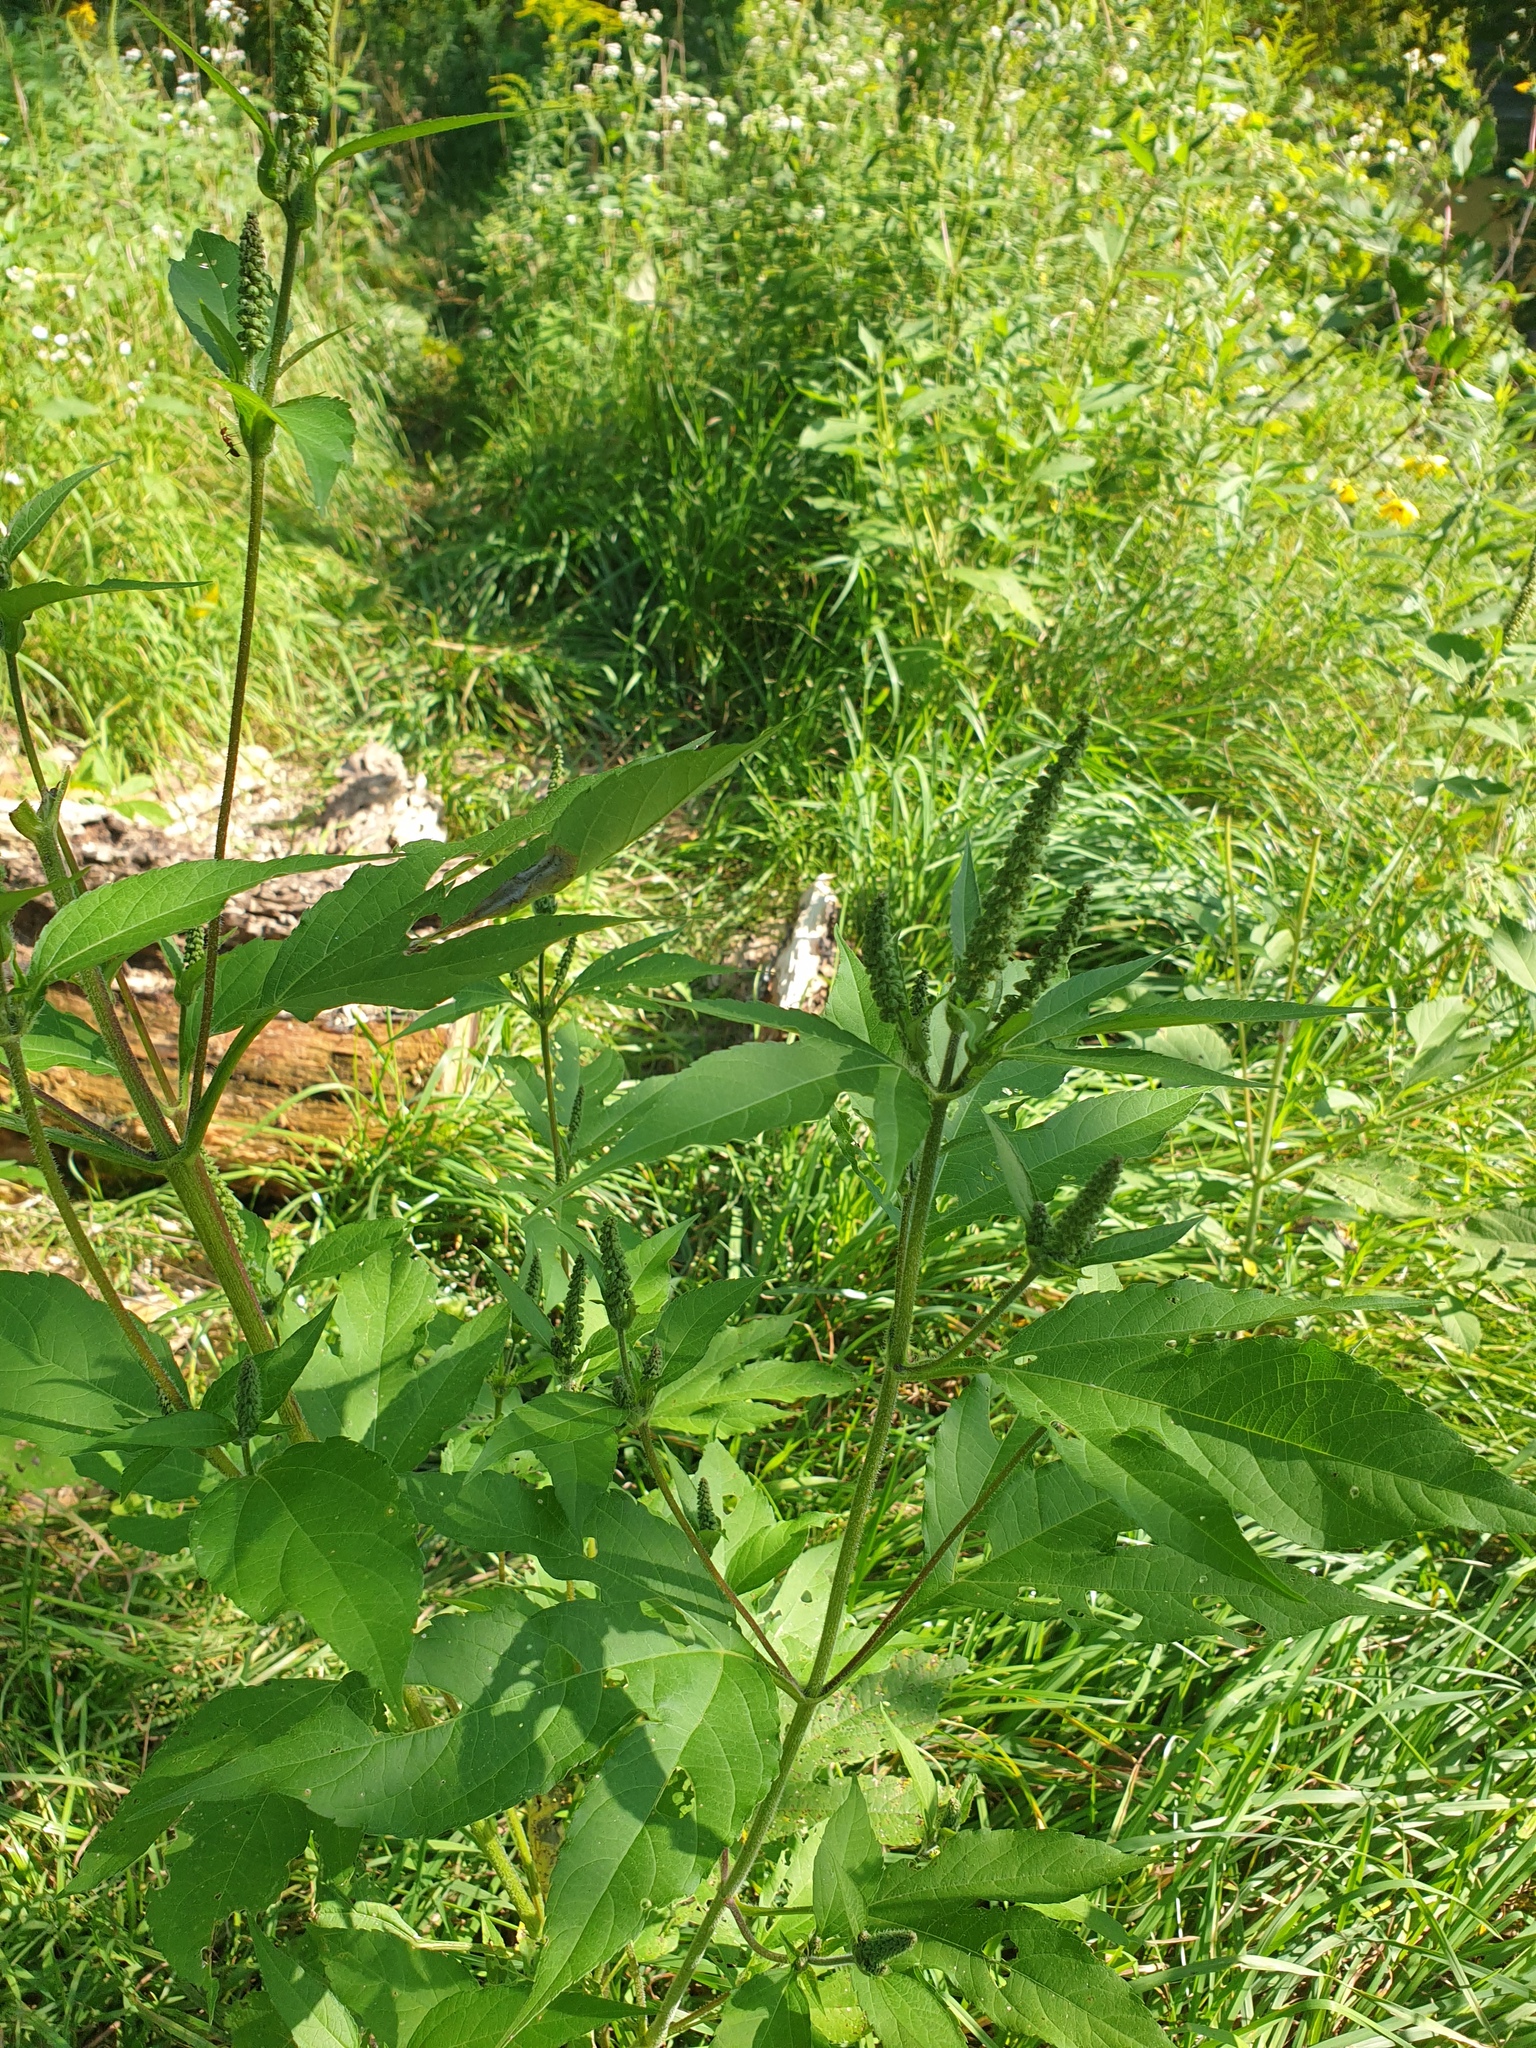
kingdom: Plantae
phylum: Tracheophyta
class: Magnoliopsida
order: Asterales
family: Asteraceae
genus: Ambrosia
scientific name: Ambrosia trifida
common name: Giant ragweed
